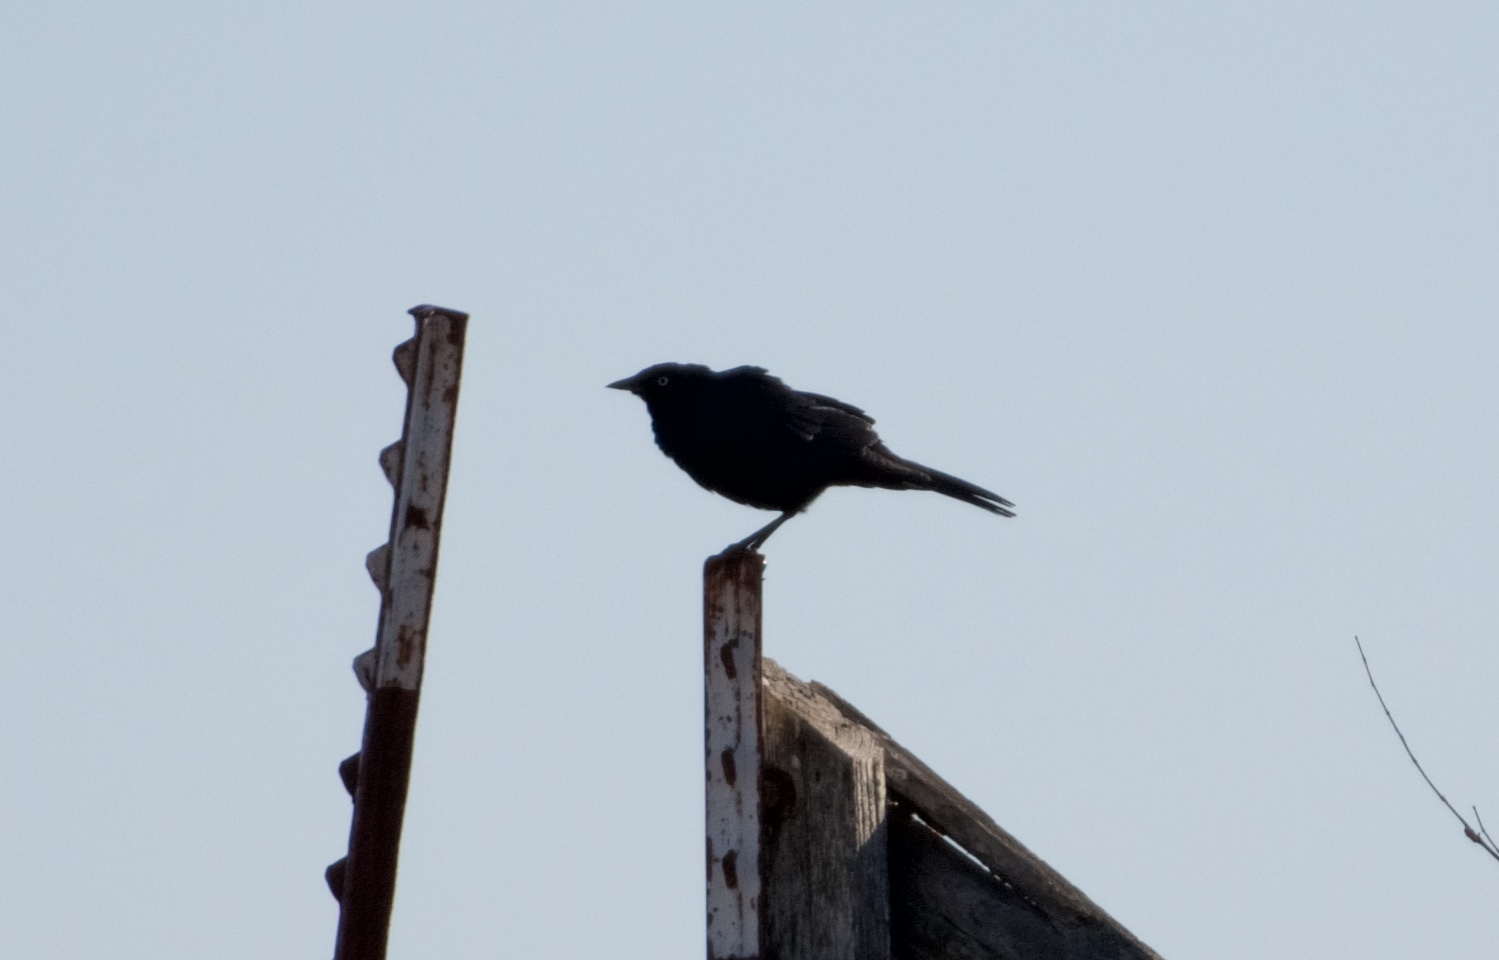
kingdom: Animalia
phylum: Chordata
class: Aves
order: Passeriformes
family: Icteridae
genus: Euphagus
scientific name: Euphagus cyanocephalus
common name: Brewer's blackbird
